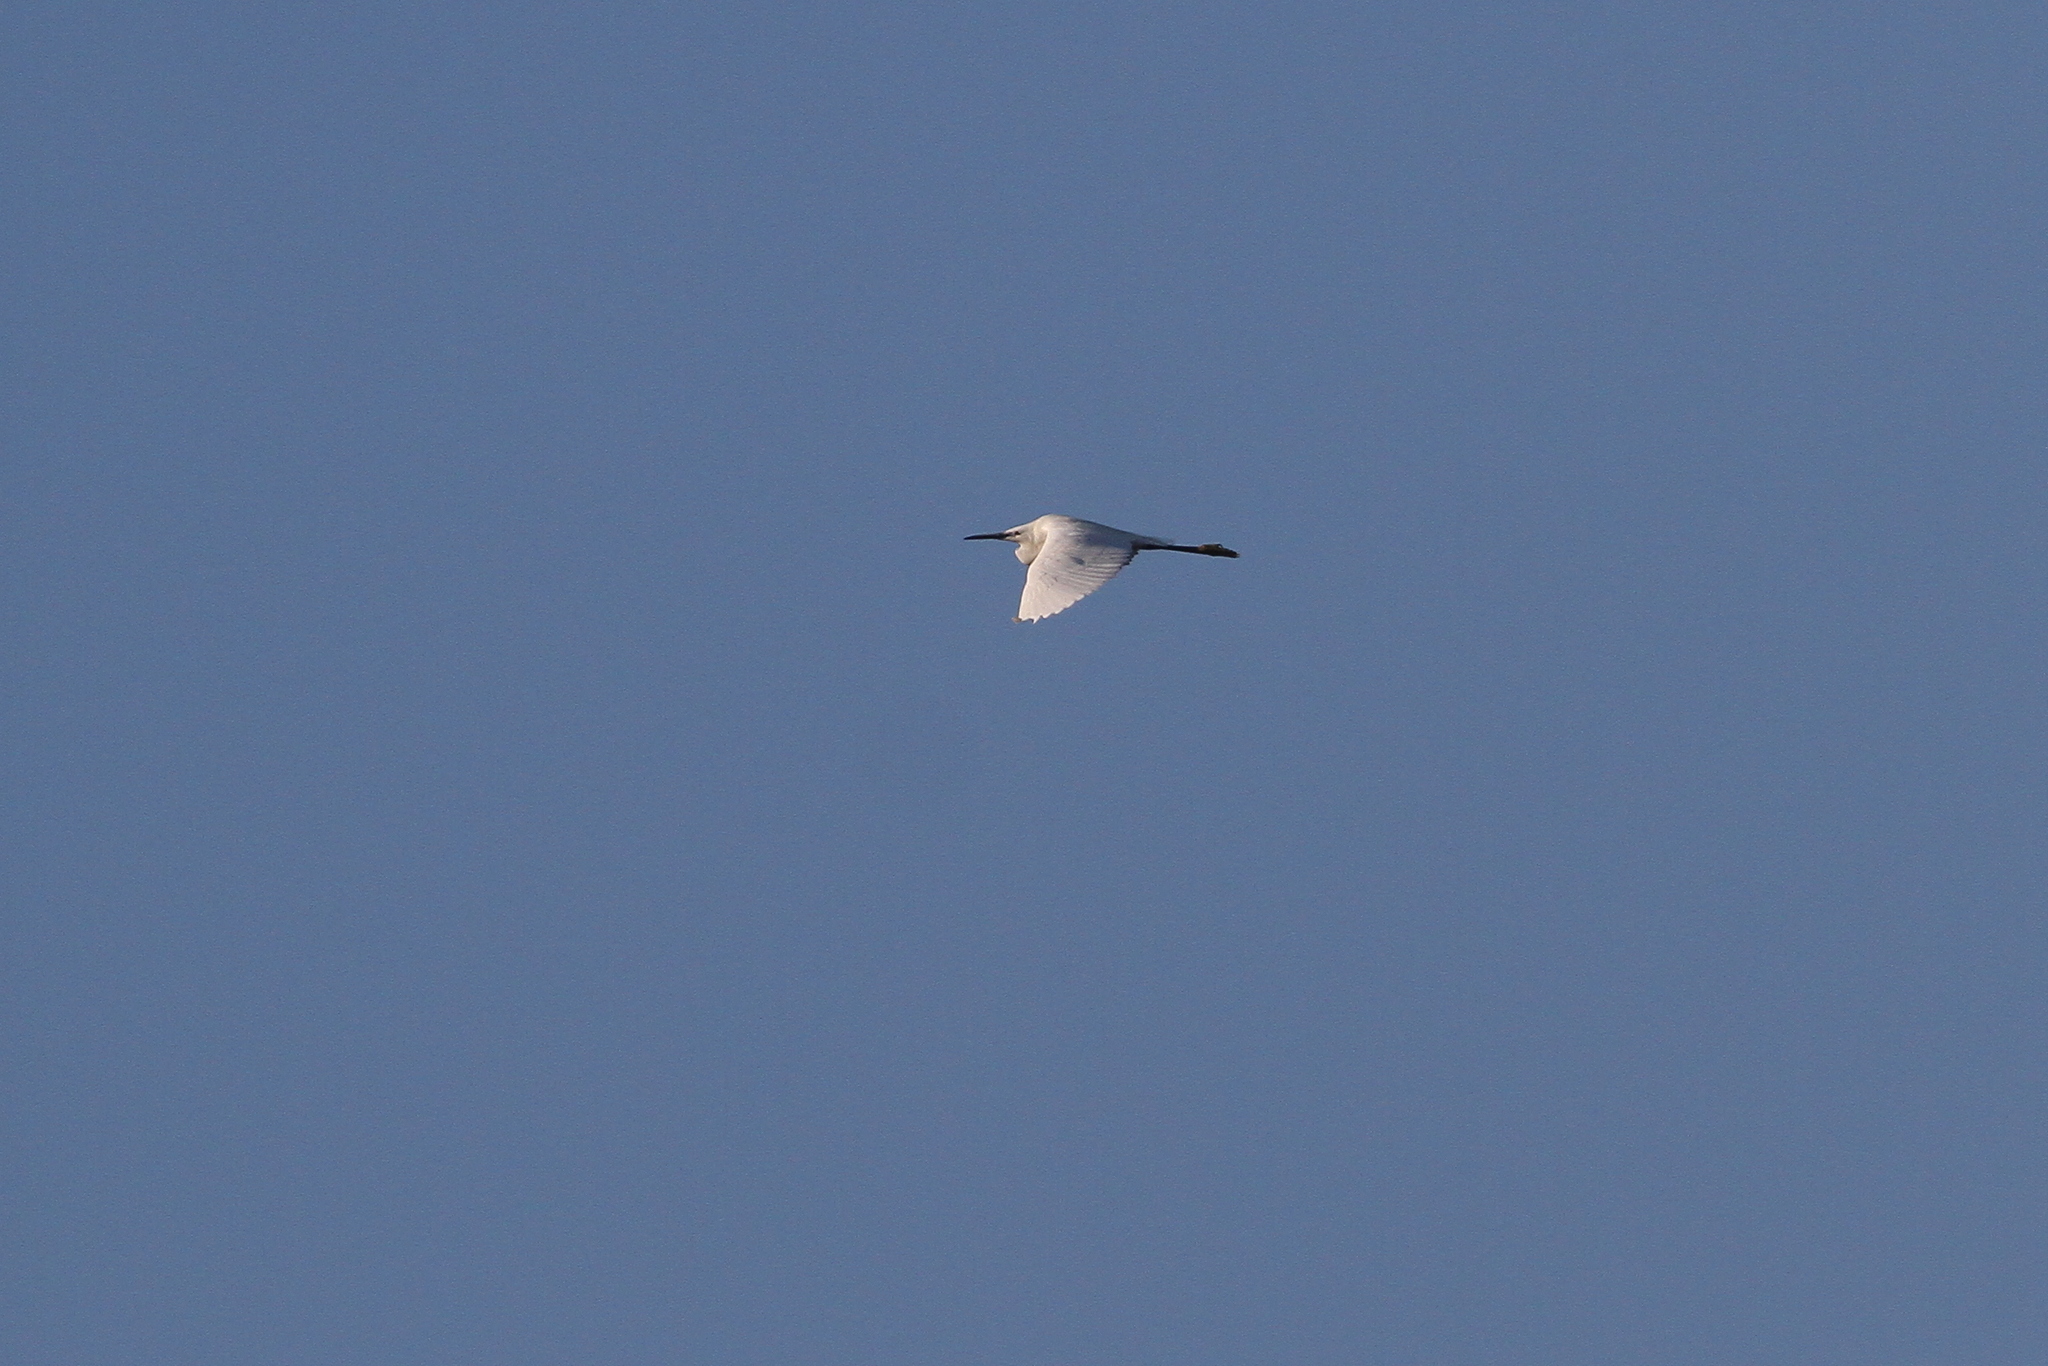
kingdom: Animalia
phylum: Chordata
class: Aves
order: Pelecaniformes
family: Ardeidae
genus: Egretta
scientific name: Egretta garzetta
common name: Little egret
